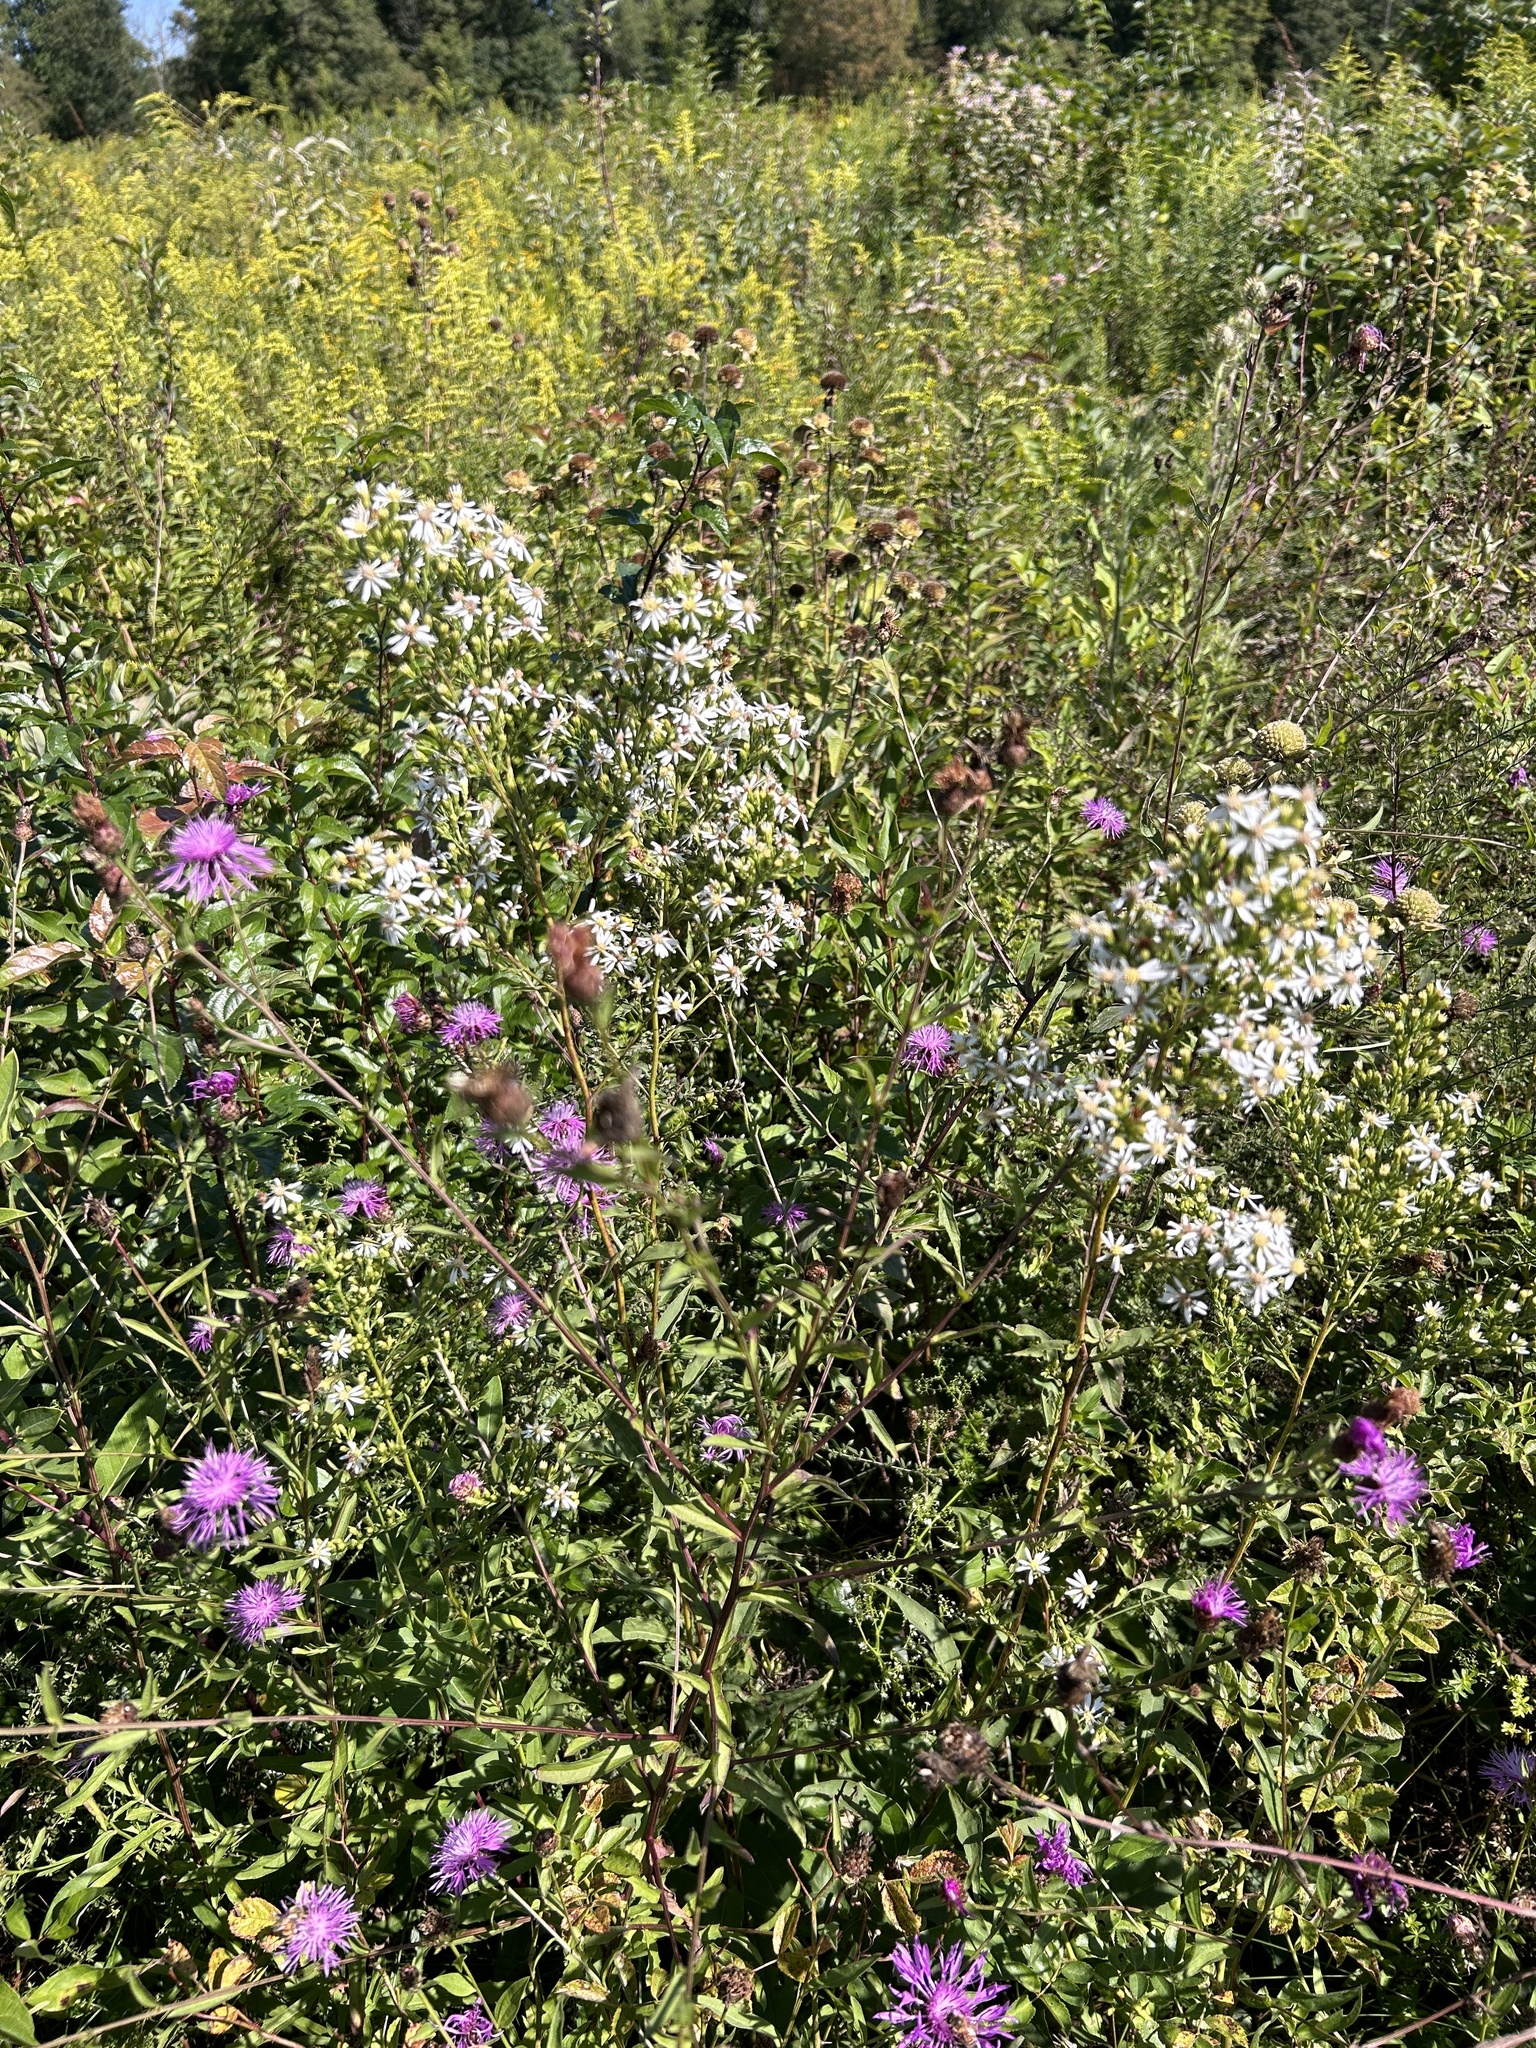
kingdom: Plantae
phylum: Tracheophyta
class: Magnoliopsida
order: Asterales
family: Asteraceae
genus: Symphyotrichum
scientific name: Symphyotrichum urophyllum
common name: Arrow-leaved aster
